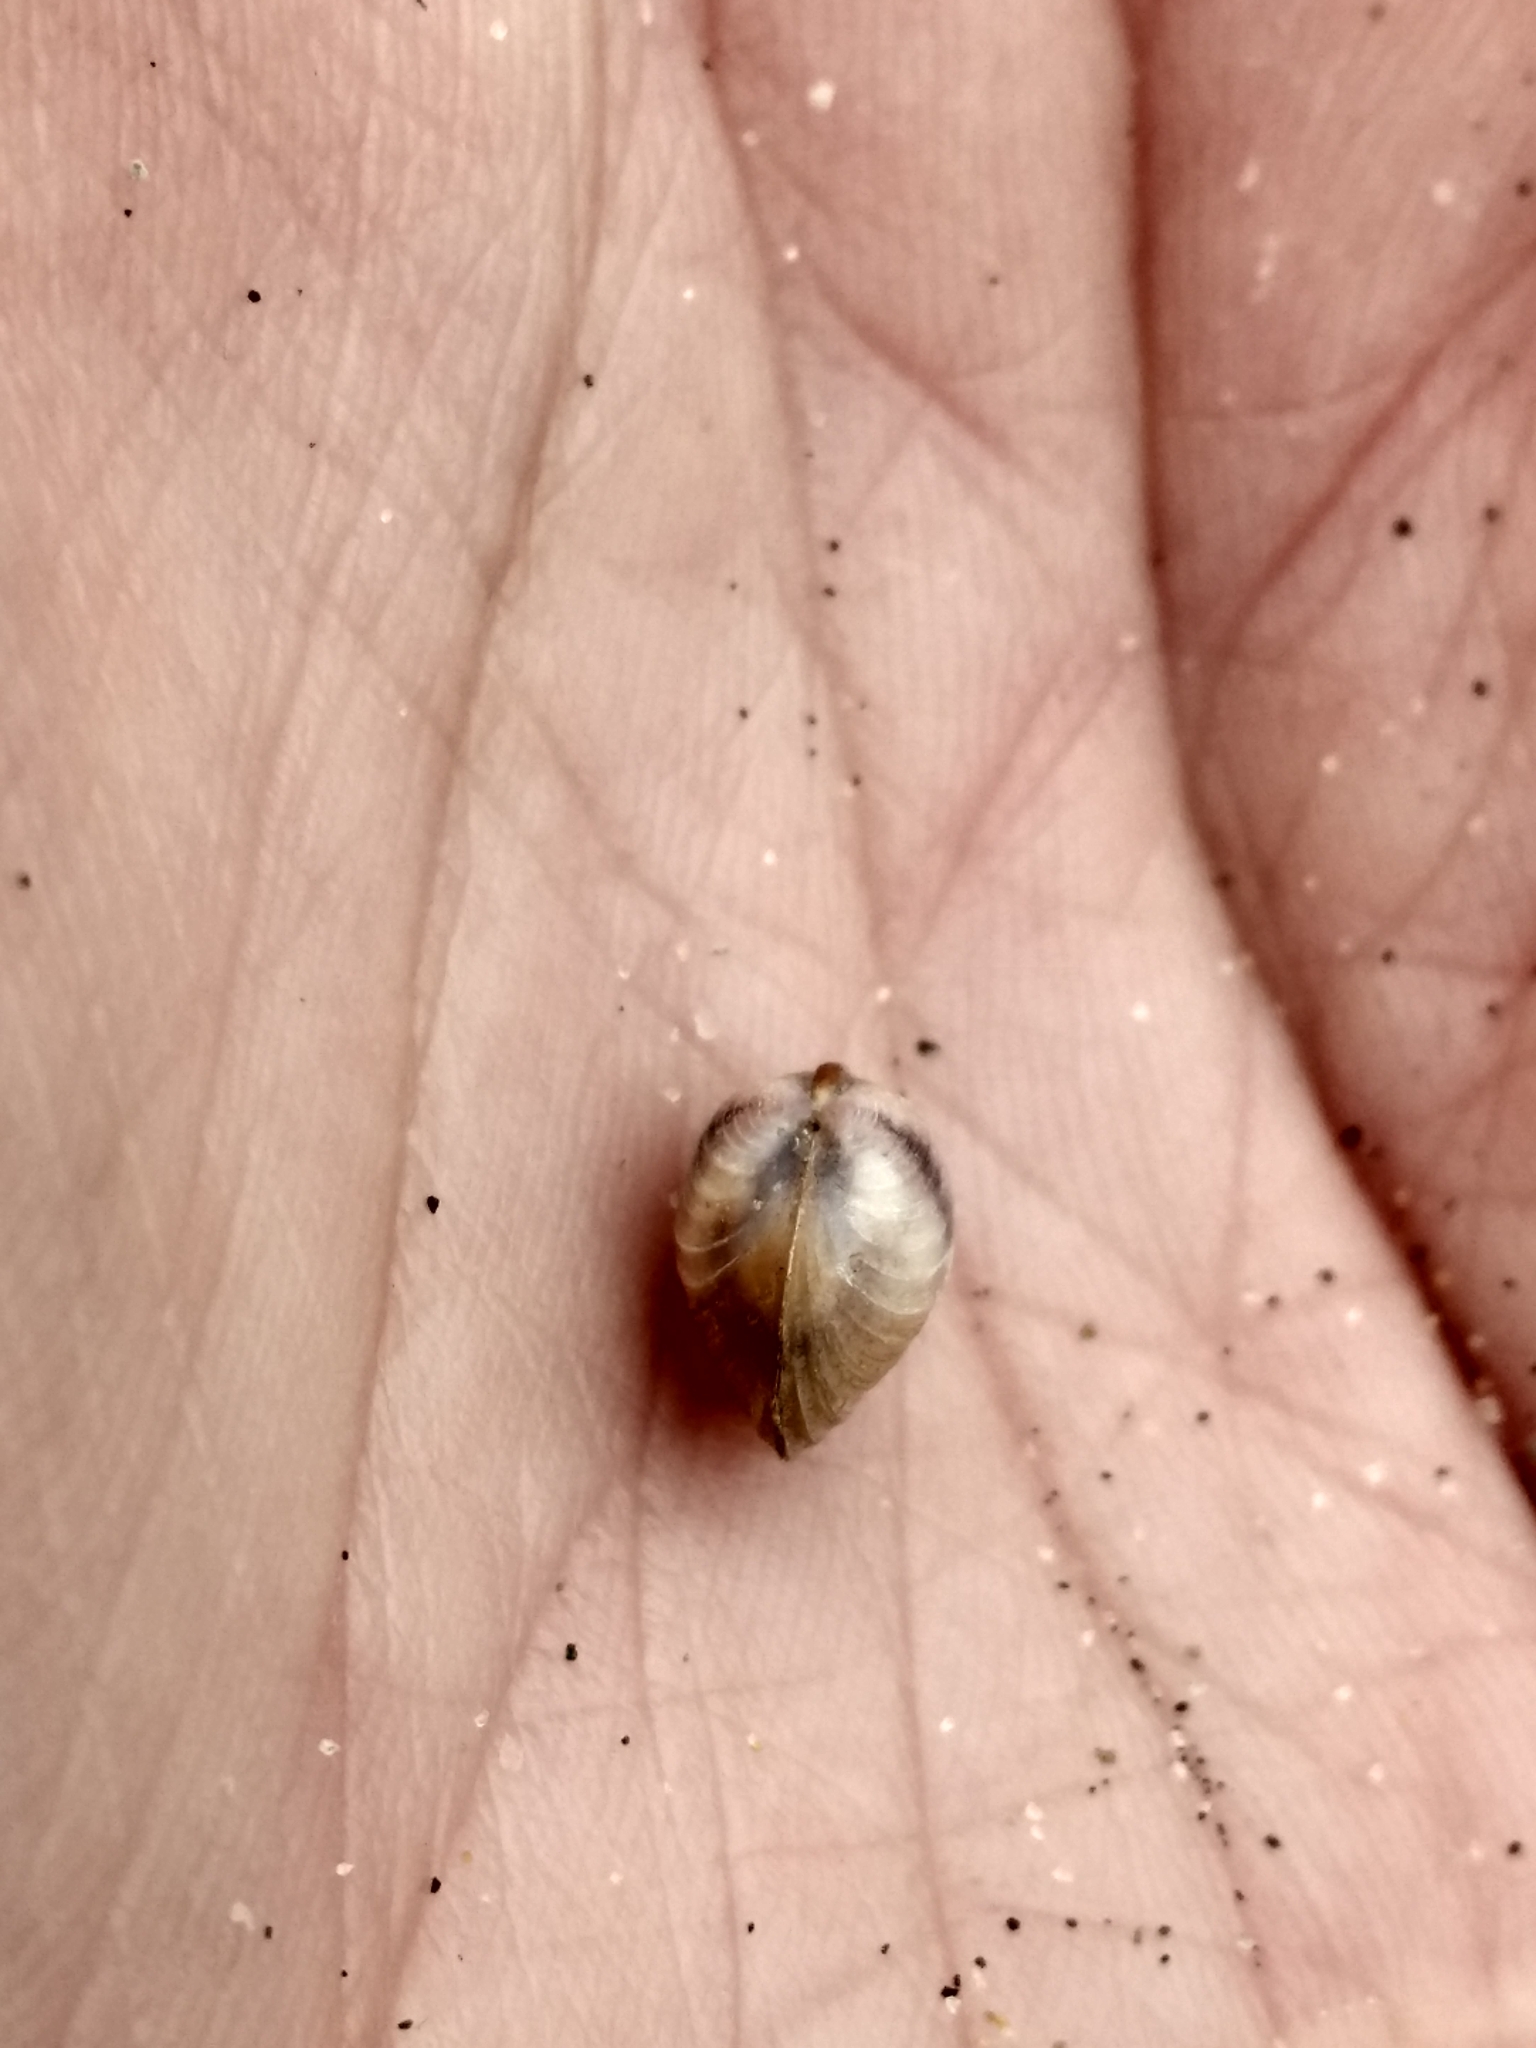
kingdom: Animalia
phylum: Mollusca
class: Bivalvia
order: Venerida
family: Cyrenidae
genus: Corbicula
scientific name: Corbicula fluminea
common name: Asian clam
